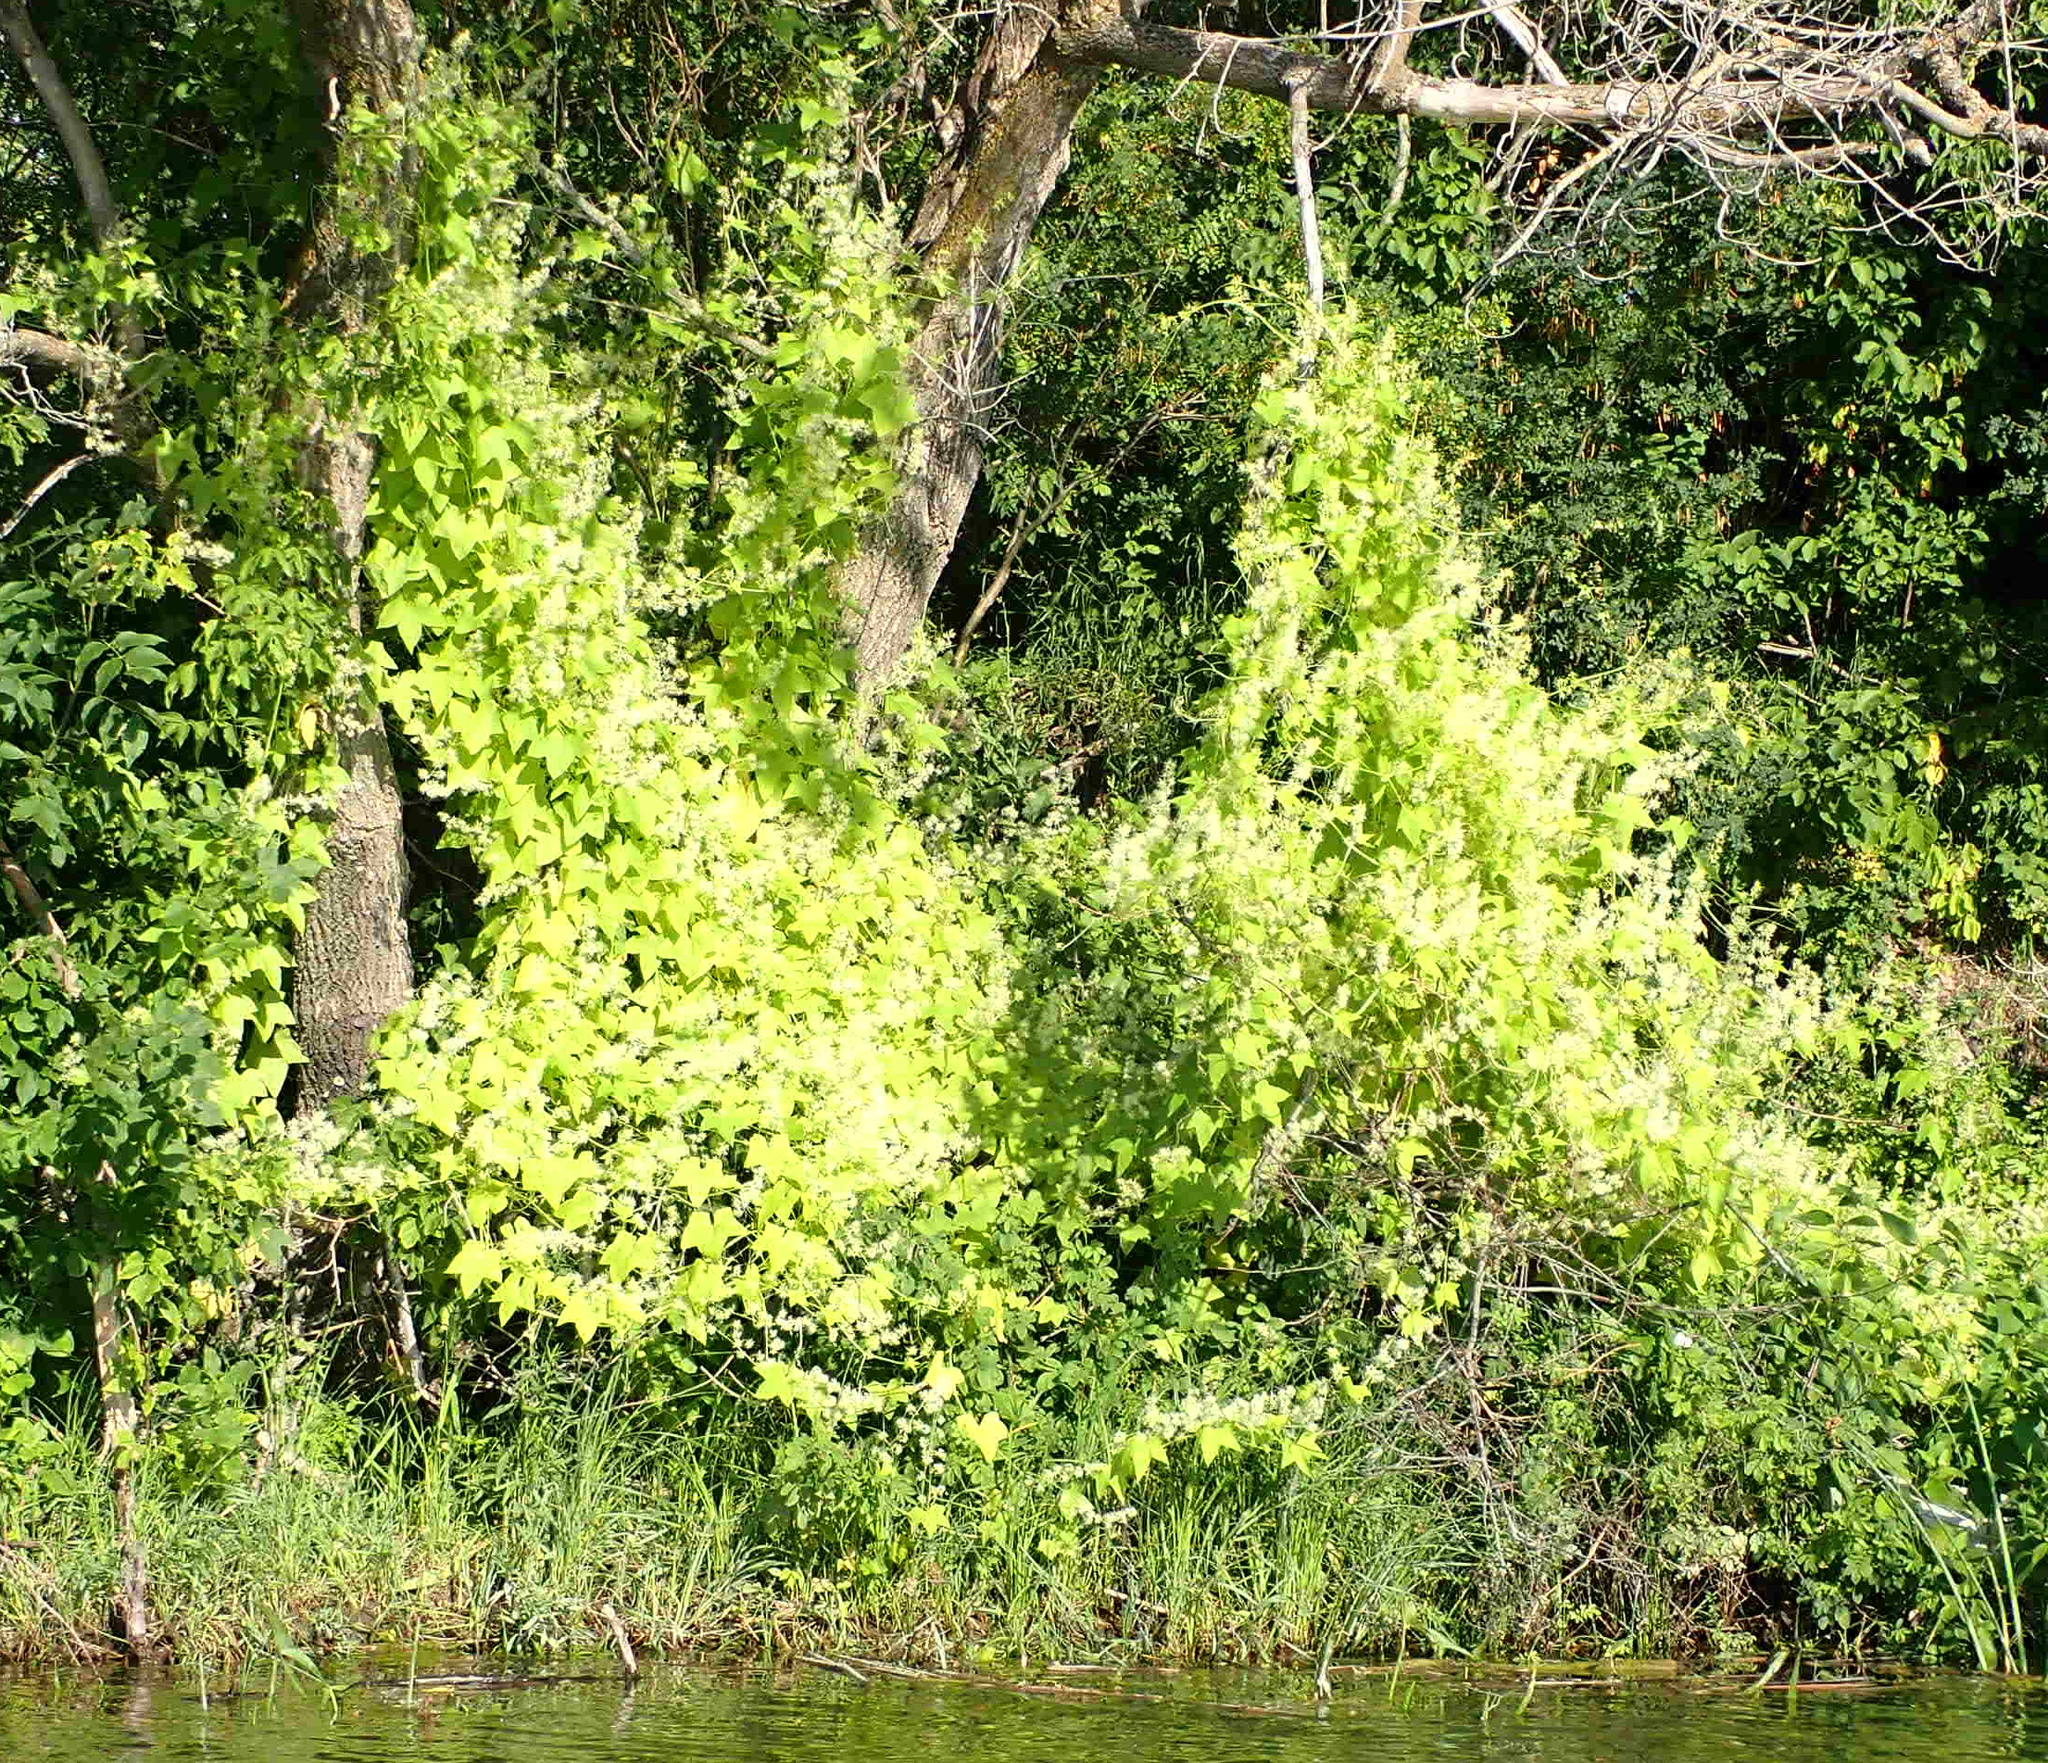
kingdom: Plantae
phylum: Tracheophyta
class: Magnoliopsida
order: Cucurbitales
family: Cucurbitaceae
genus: Echinocystis
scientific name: Echinocystis lobata
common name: Wild cucumber
